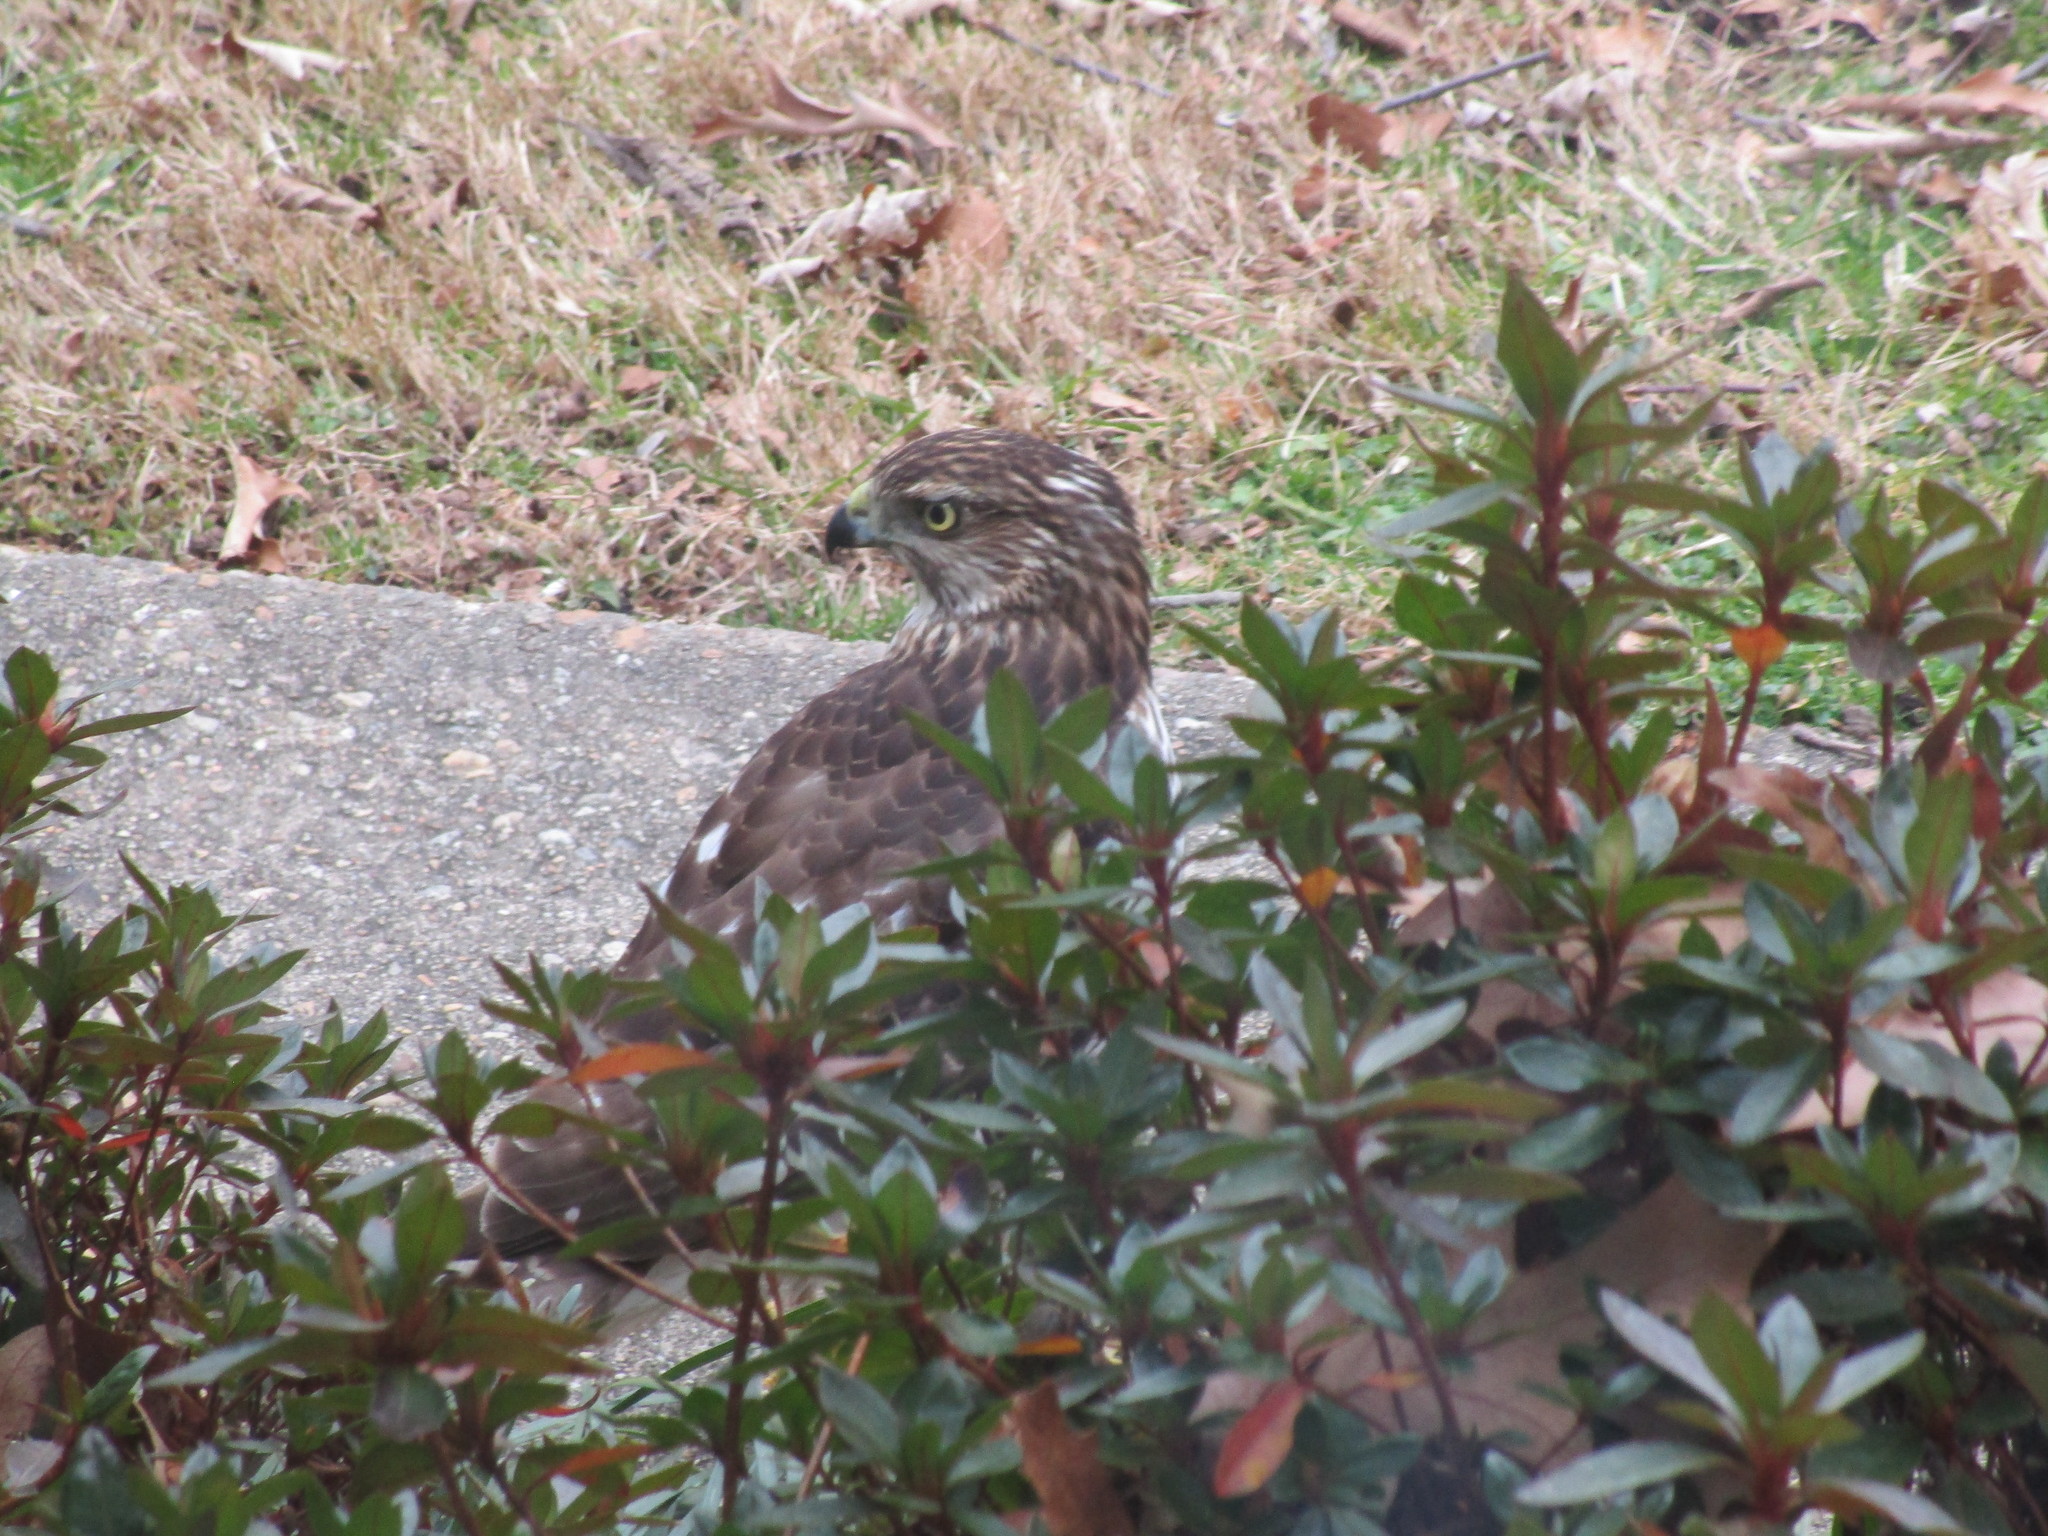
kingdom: Animalia
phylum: Chordata
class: Aves
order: Accipitriformes
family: Accipitridae
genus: Accipiter
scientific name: Accipiter cooperii
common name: Cooper's hawk
